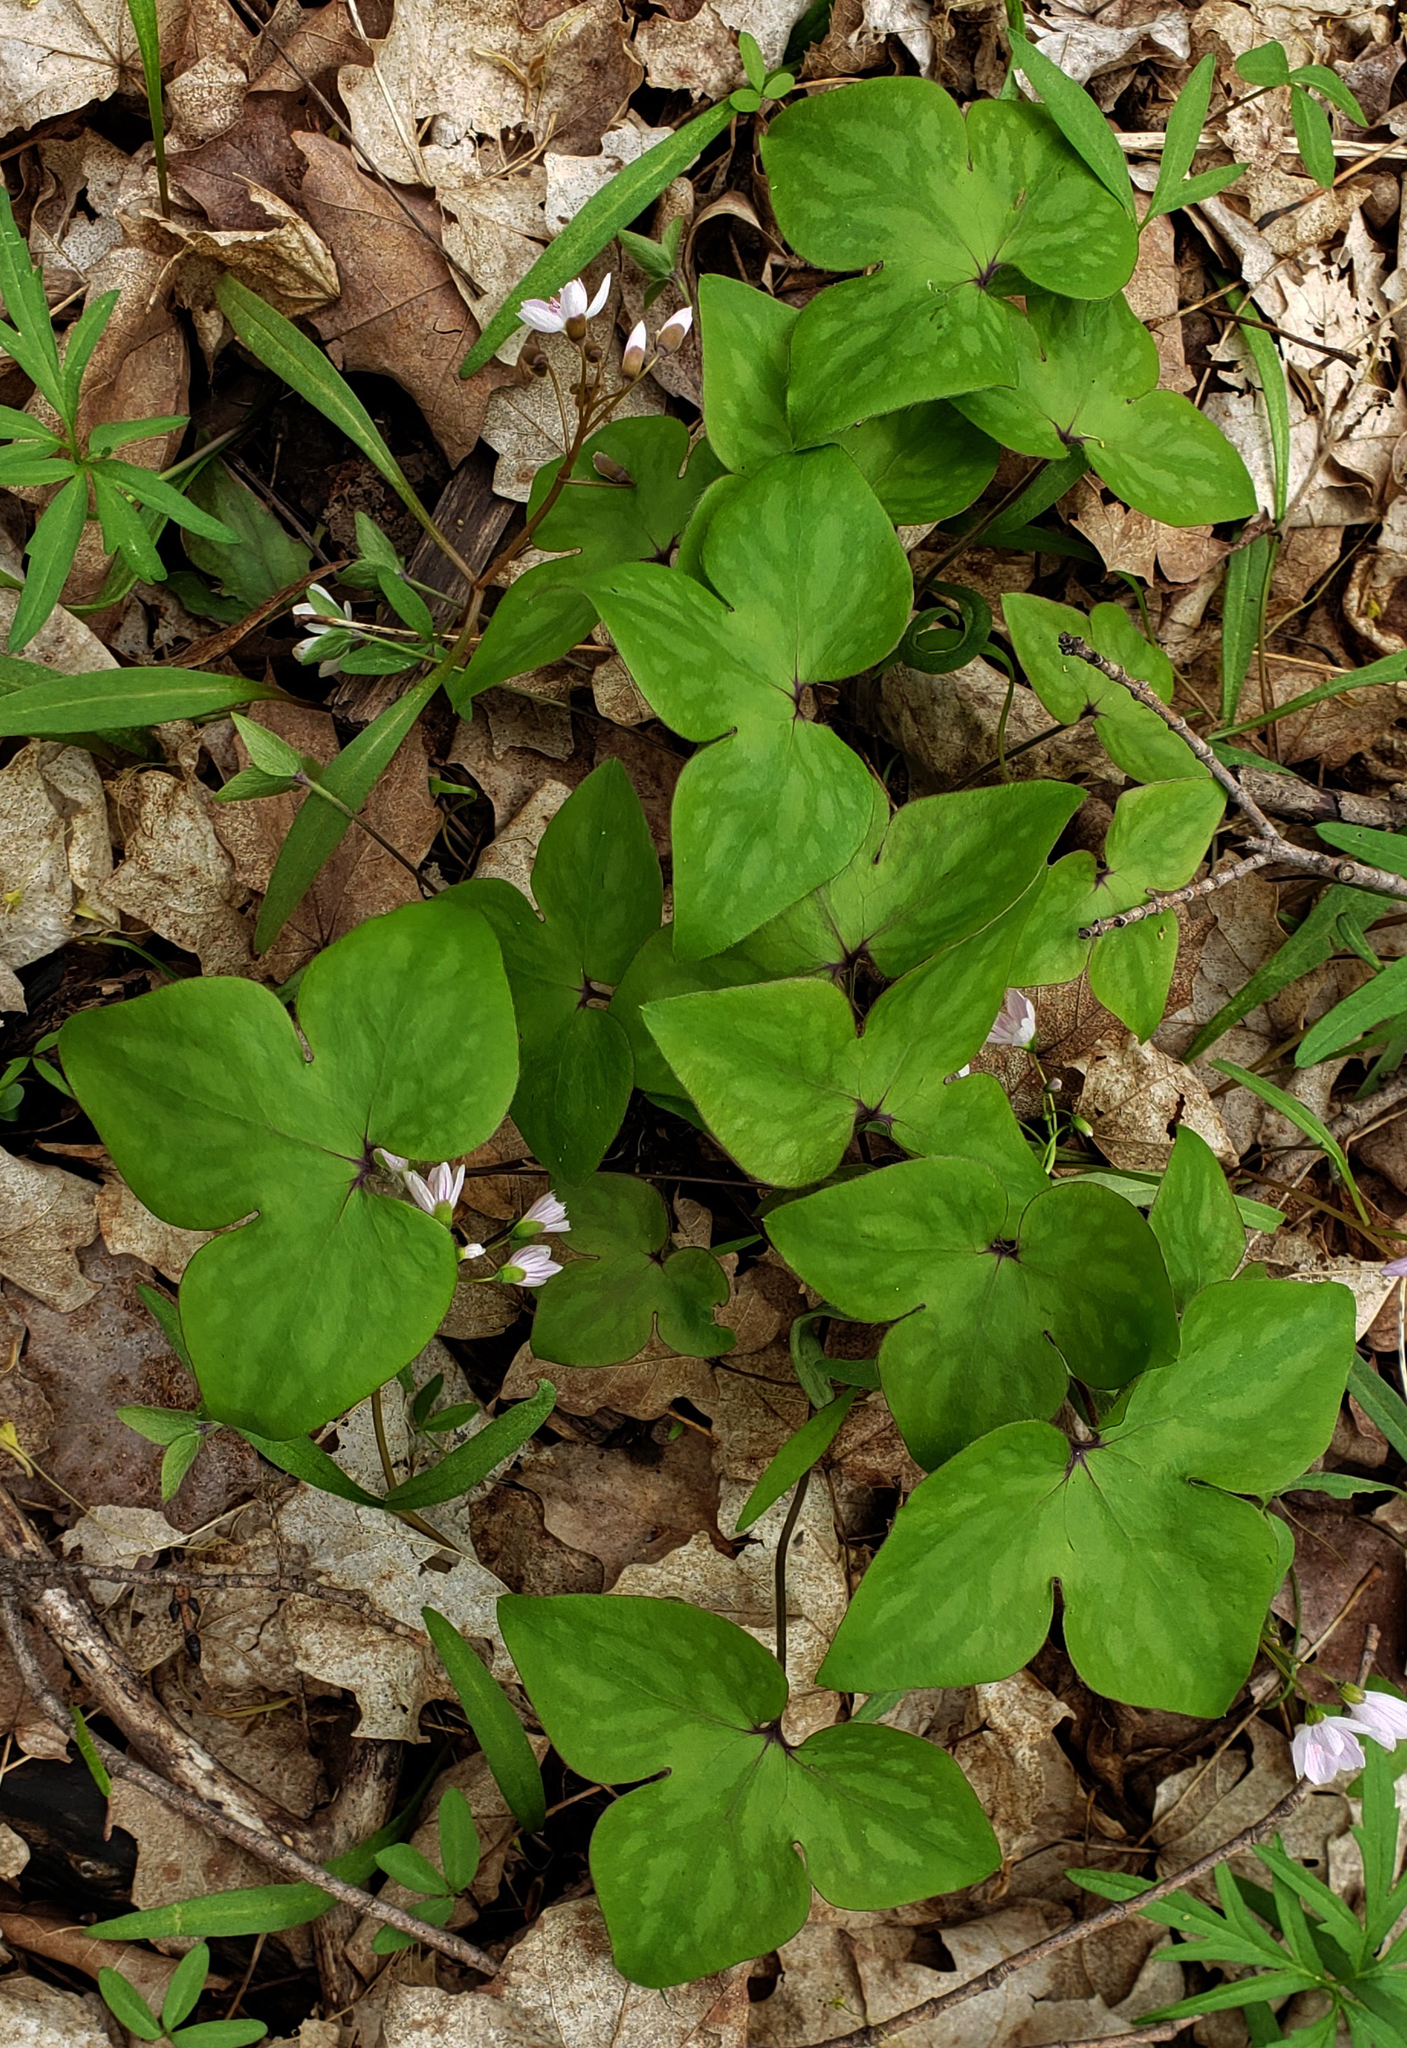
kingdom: Plantae
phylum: Tracheophyta
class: Magnoliopsida
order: Ranunculales
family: Ranunculaceae
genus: Hepatica
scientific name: Hepatica acutiloba
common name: Sharp-lobed hepatica
